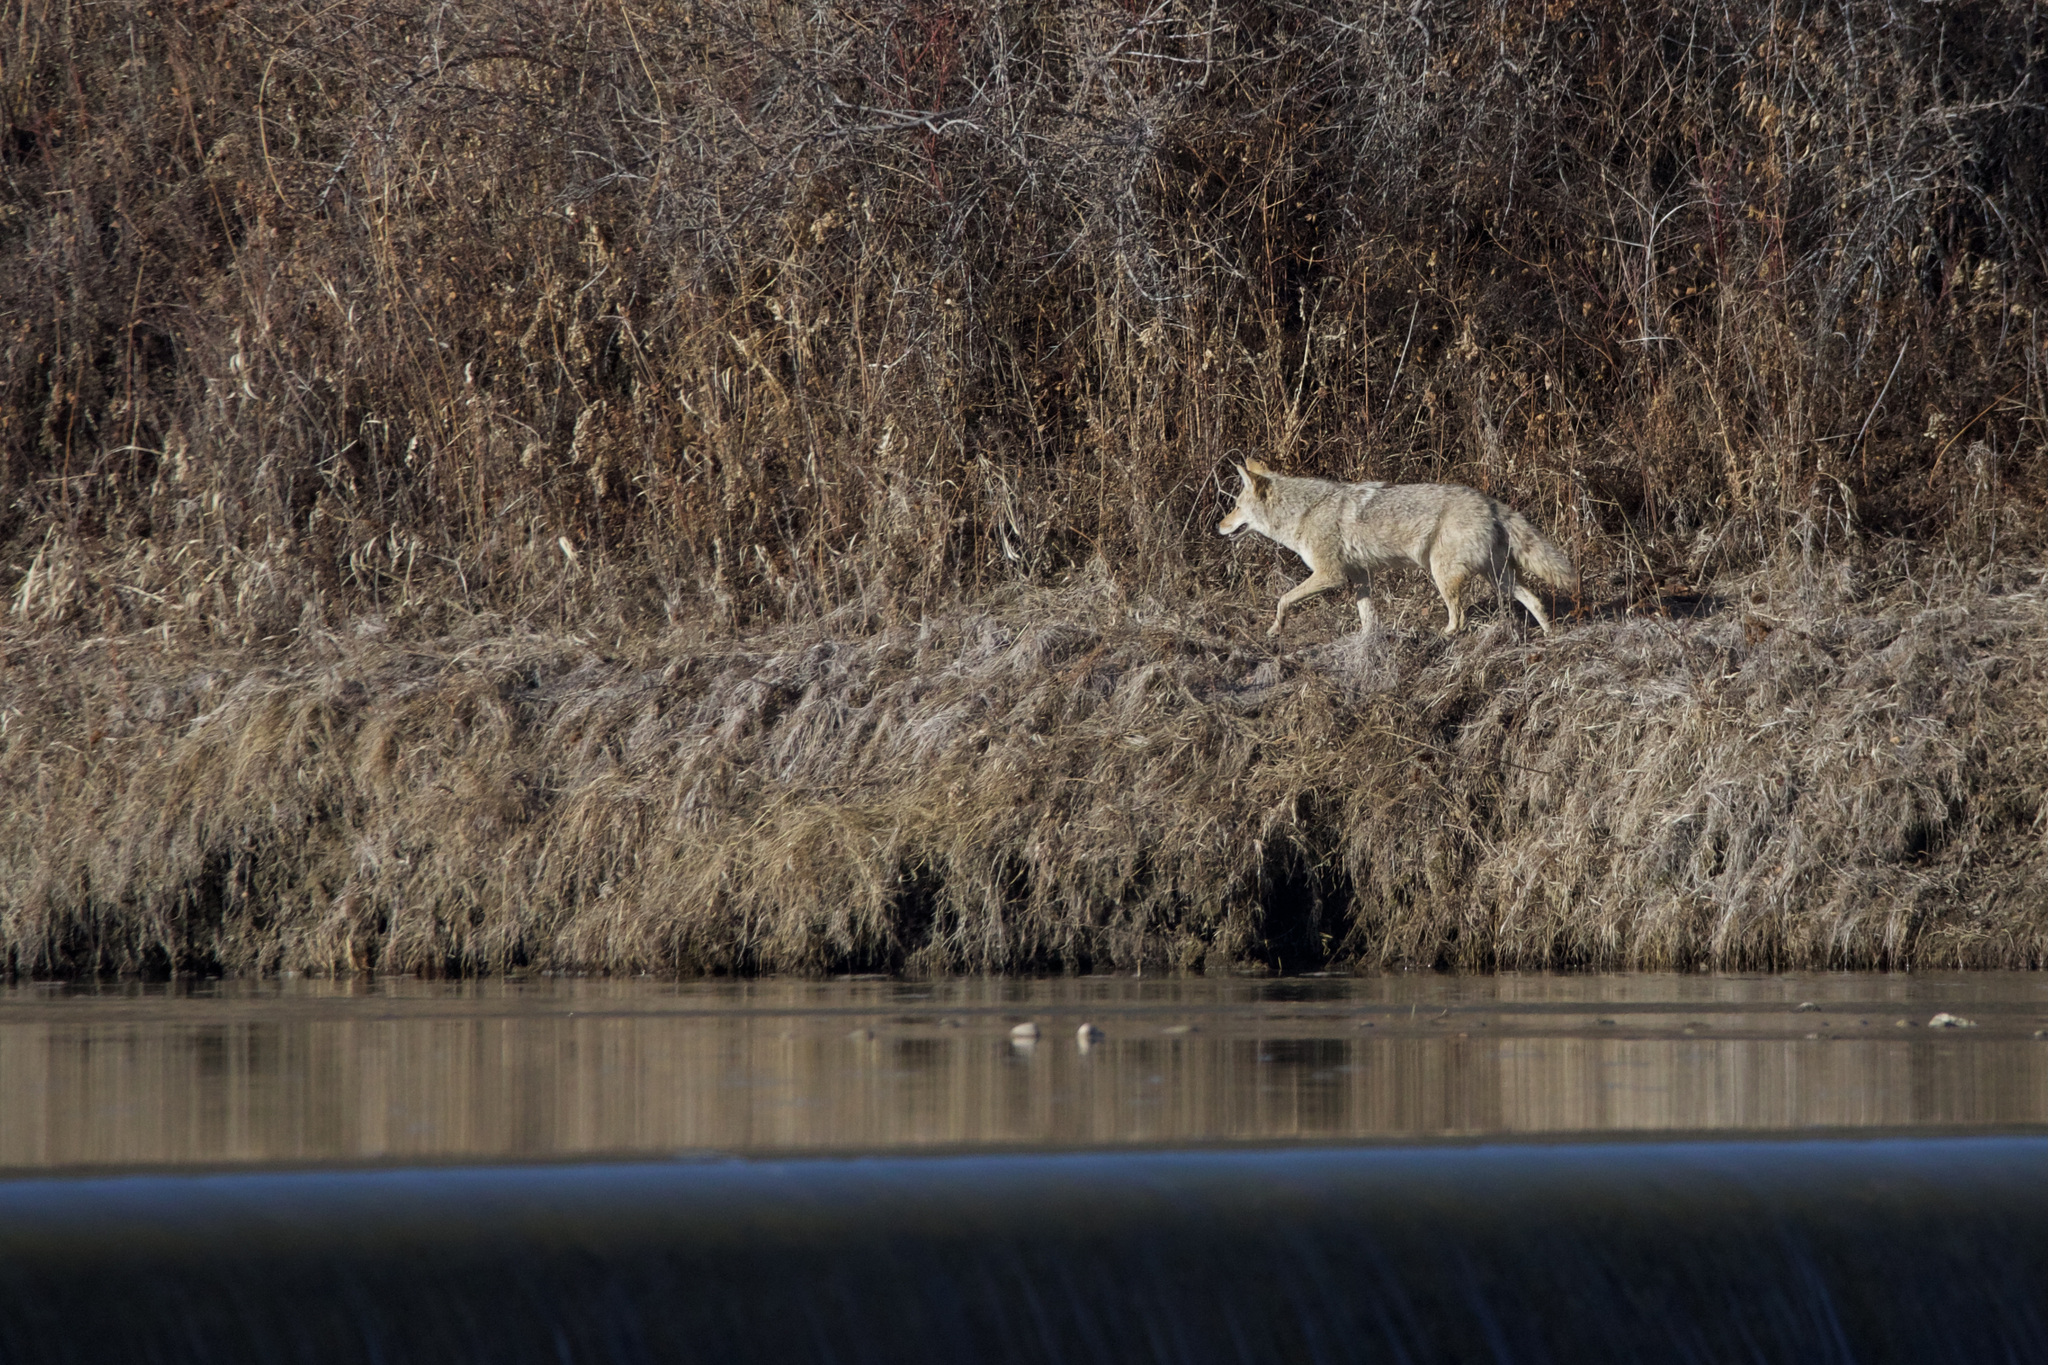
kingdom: Animalia
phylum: Chordata
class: Mammalia
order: Carnivora
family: Canidae
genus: Canis
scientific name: Canis latrans
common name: Coyote
